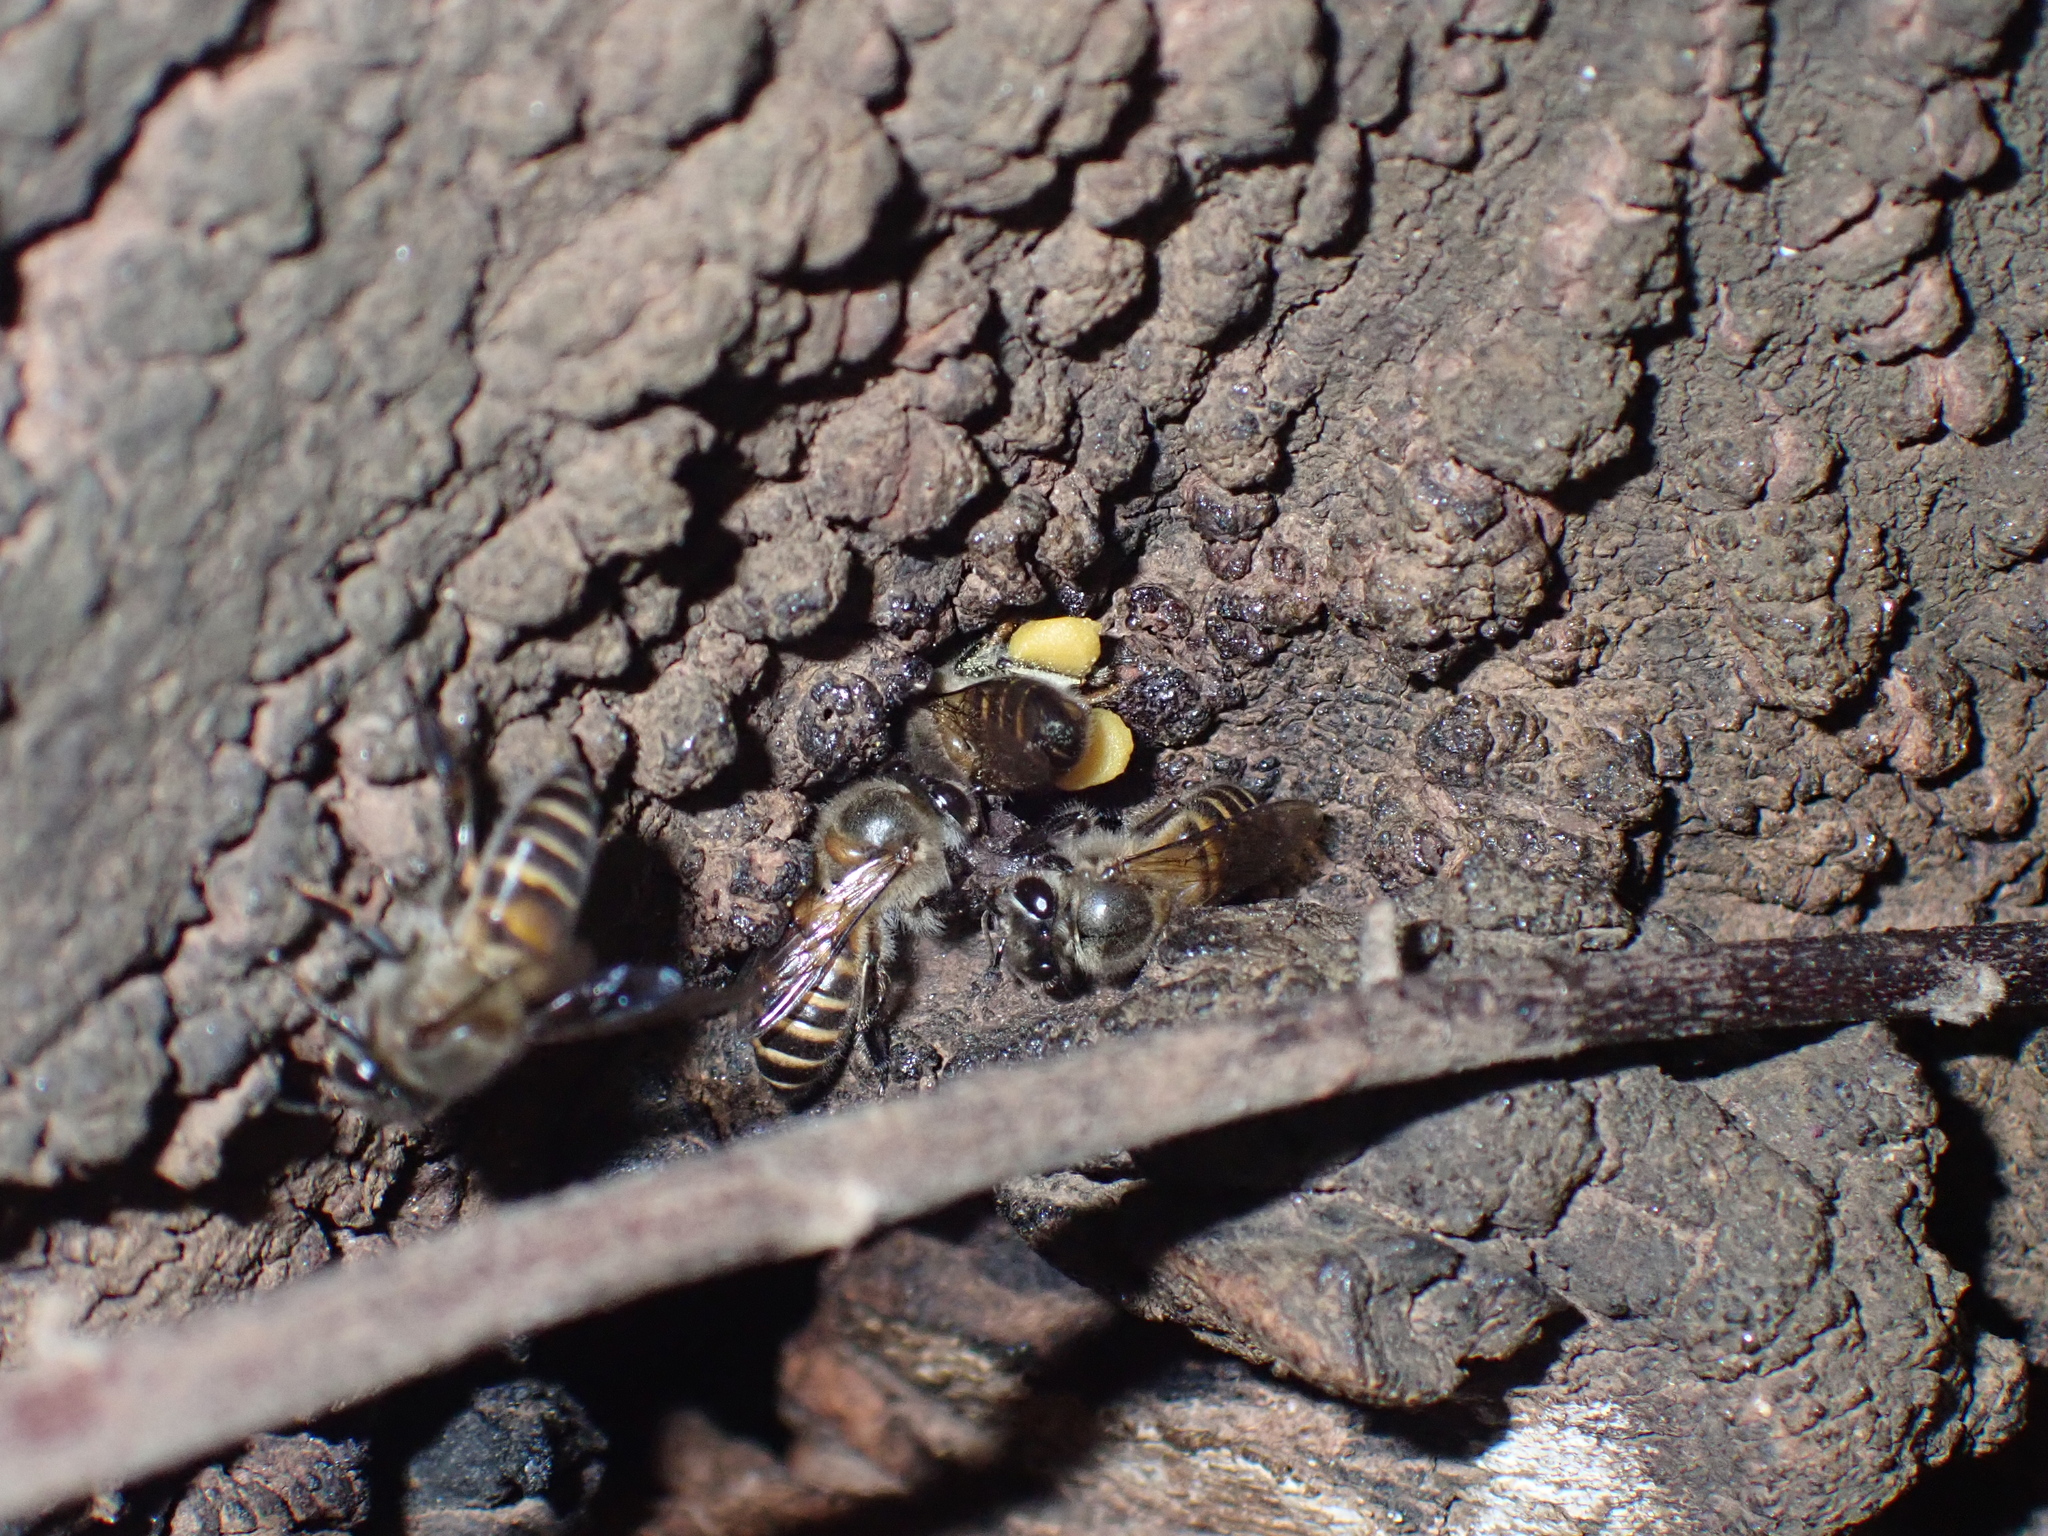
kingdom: Animalia
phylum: Arthropoda
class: Insecta
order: Hymenoptera
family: Apidae
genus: Apis
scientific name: Apis cerana
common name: Honey bee
